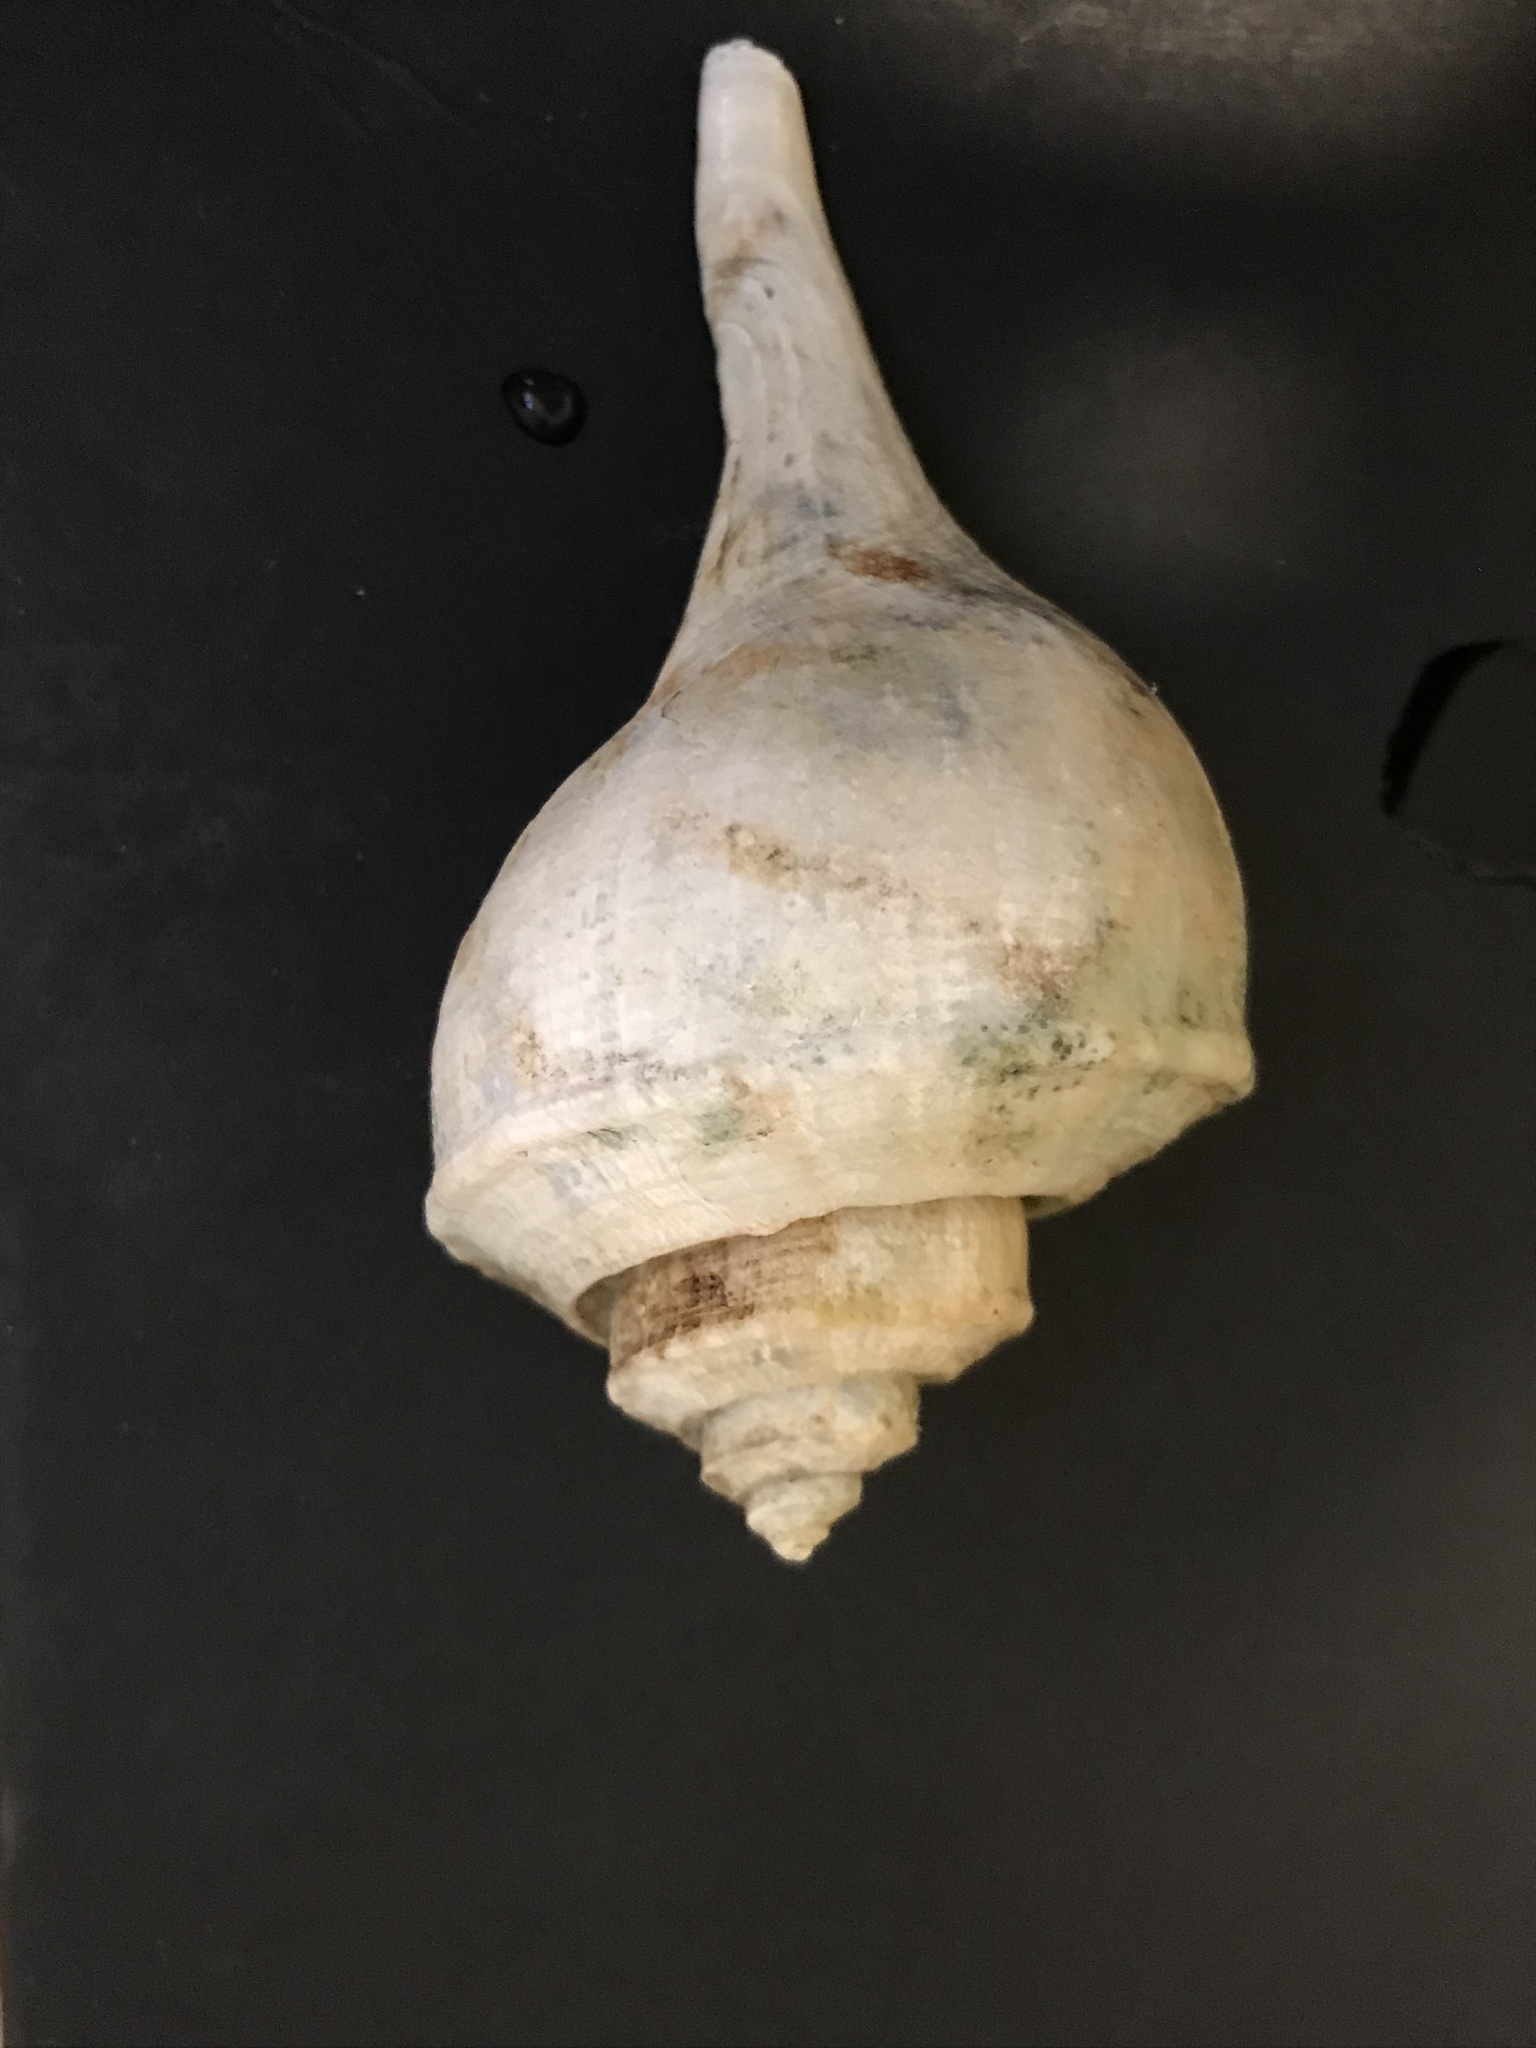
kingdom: Animalia
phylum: Mollusca
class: Gastropoda
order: Neogastropoda
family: Busyconidae
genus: Busycotypus
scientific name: Busycotypus canaliculatus
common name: Channeled whelk
